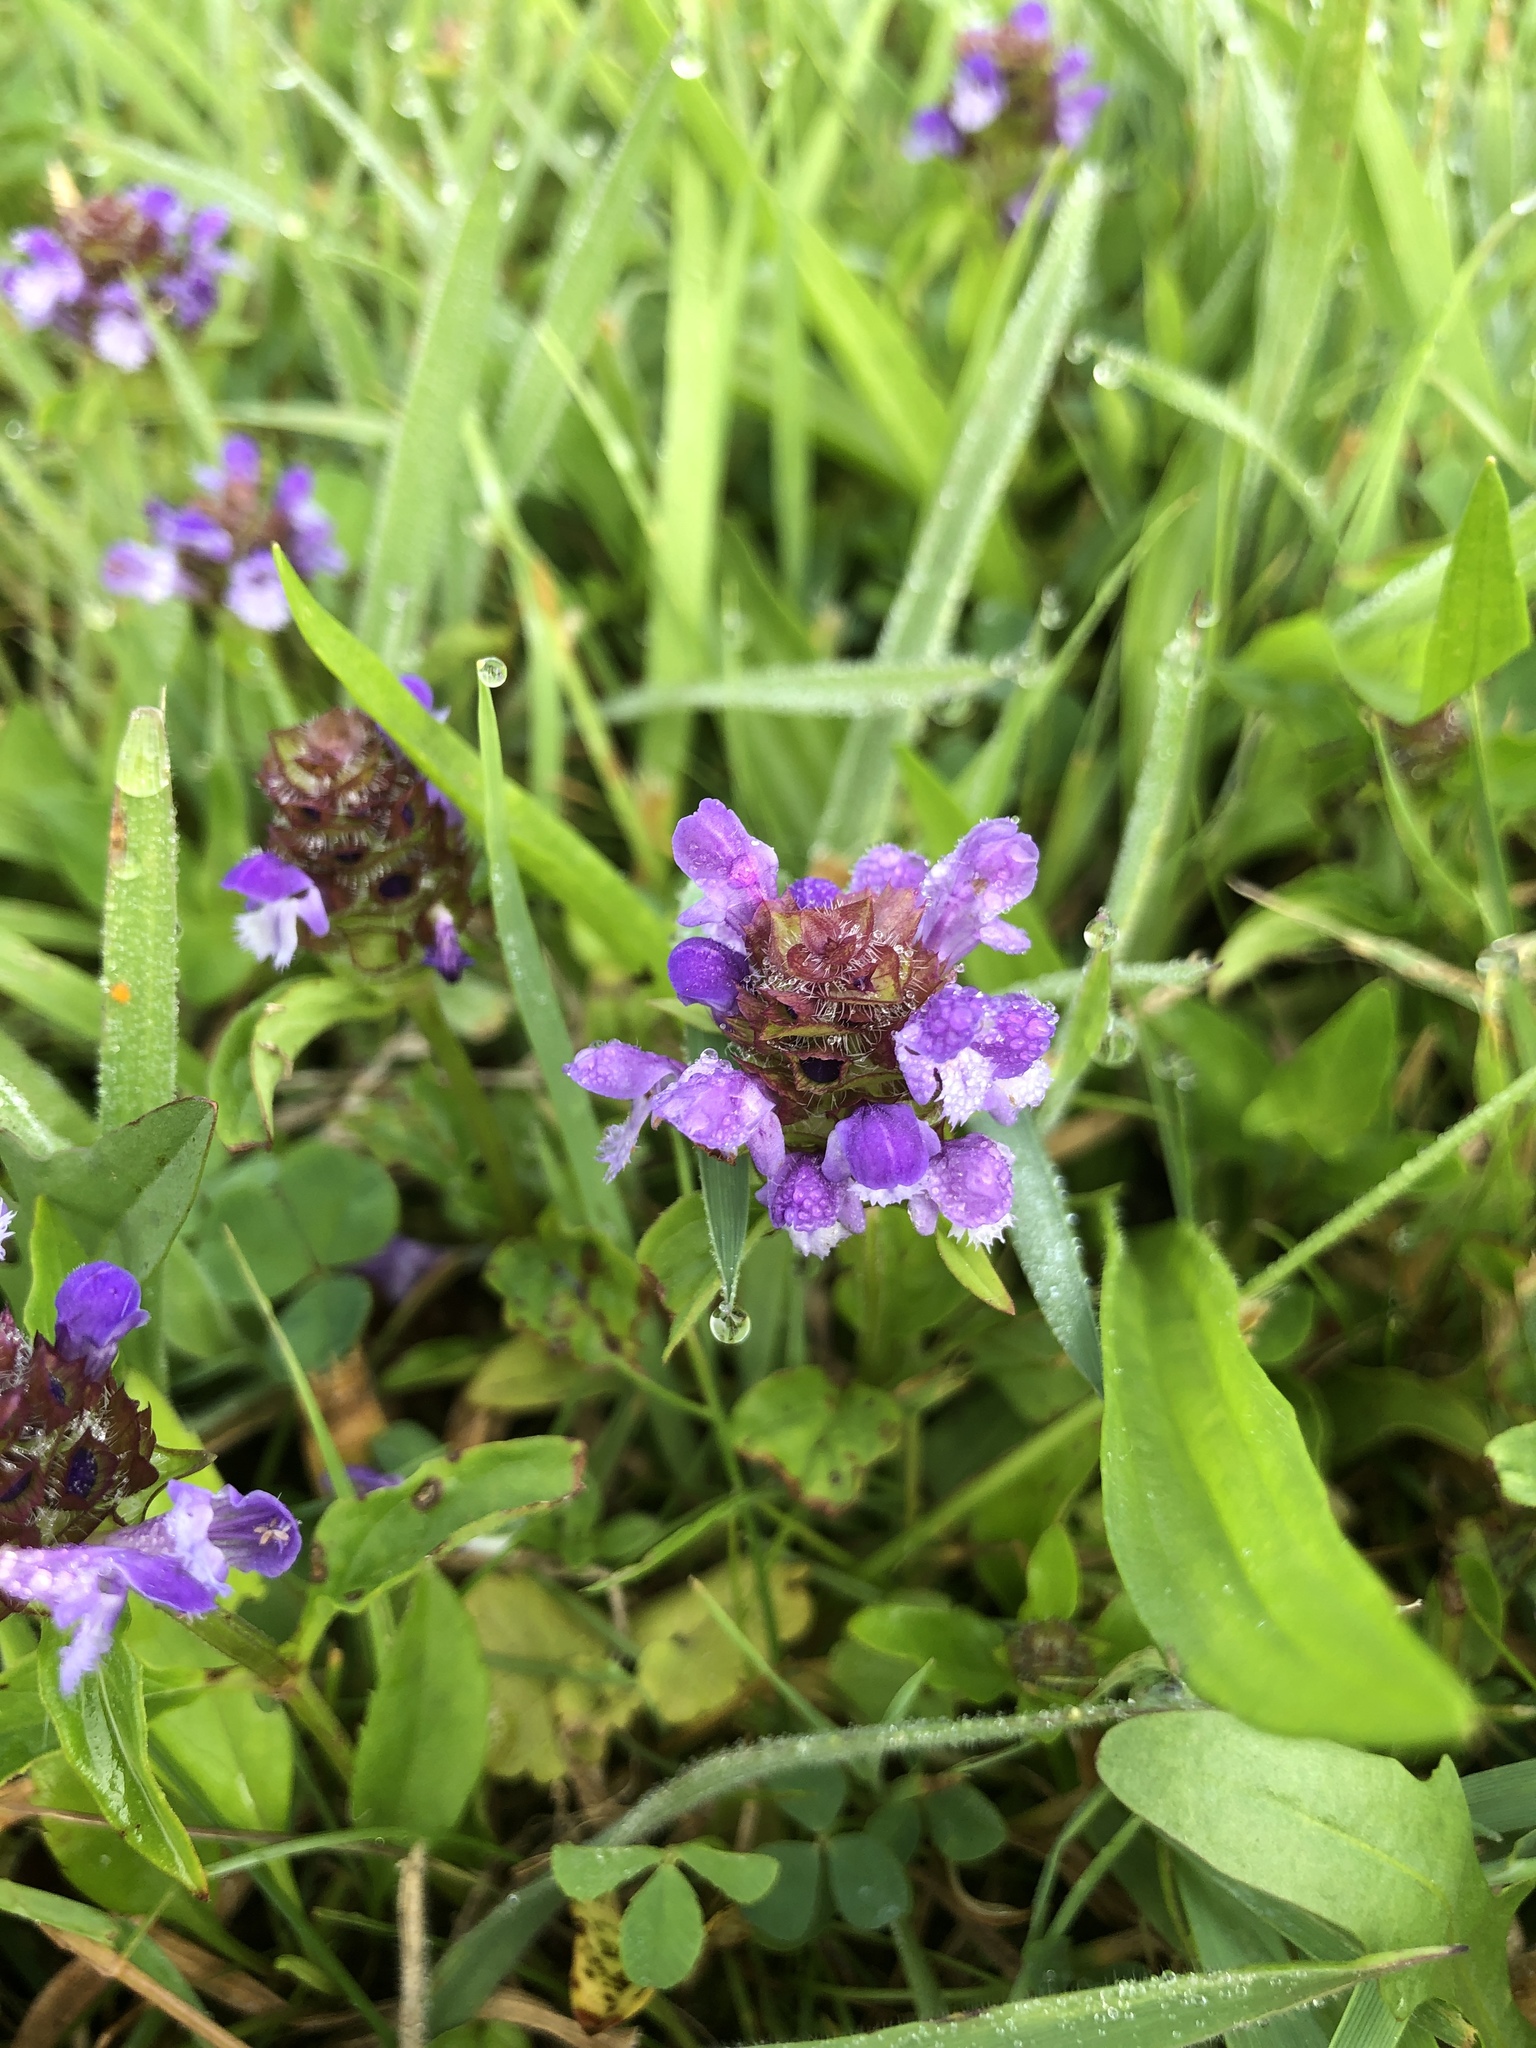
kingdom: Plantae
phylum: Tracheophyta
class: Magnoliopsida
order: Lamiales
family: Lamiaceae
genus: Prunella
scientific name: Prunella vulgaris
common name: Heal-all
